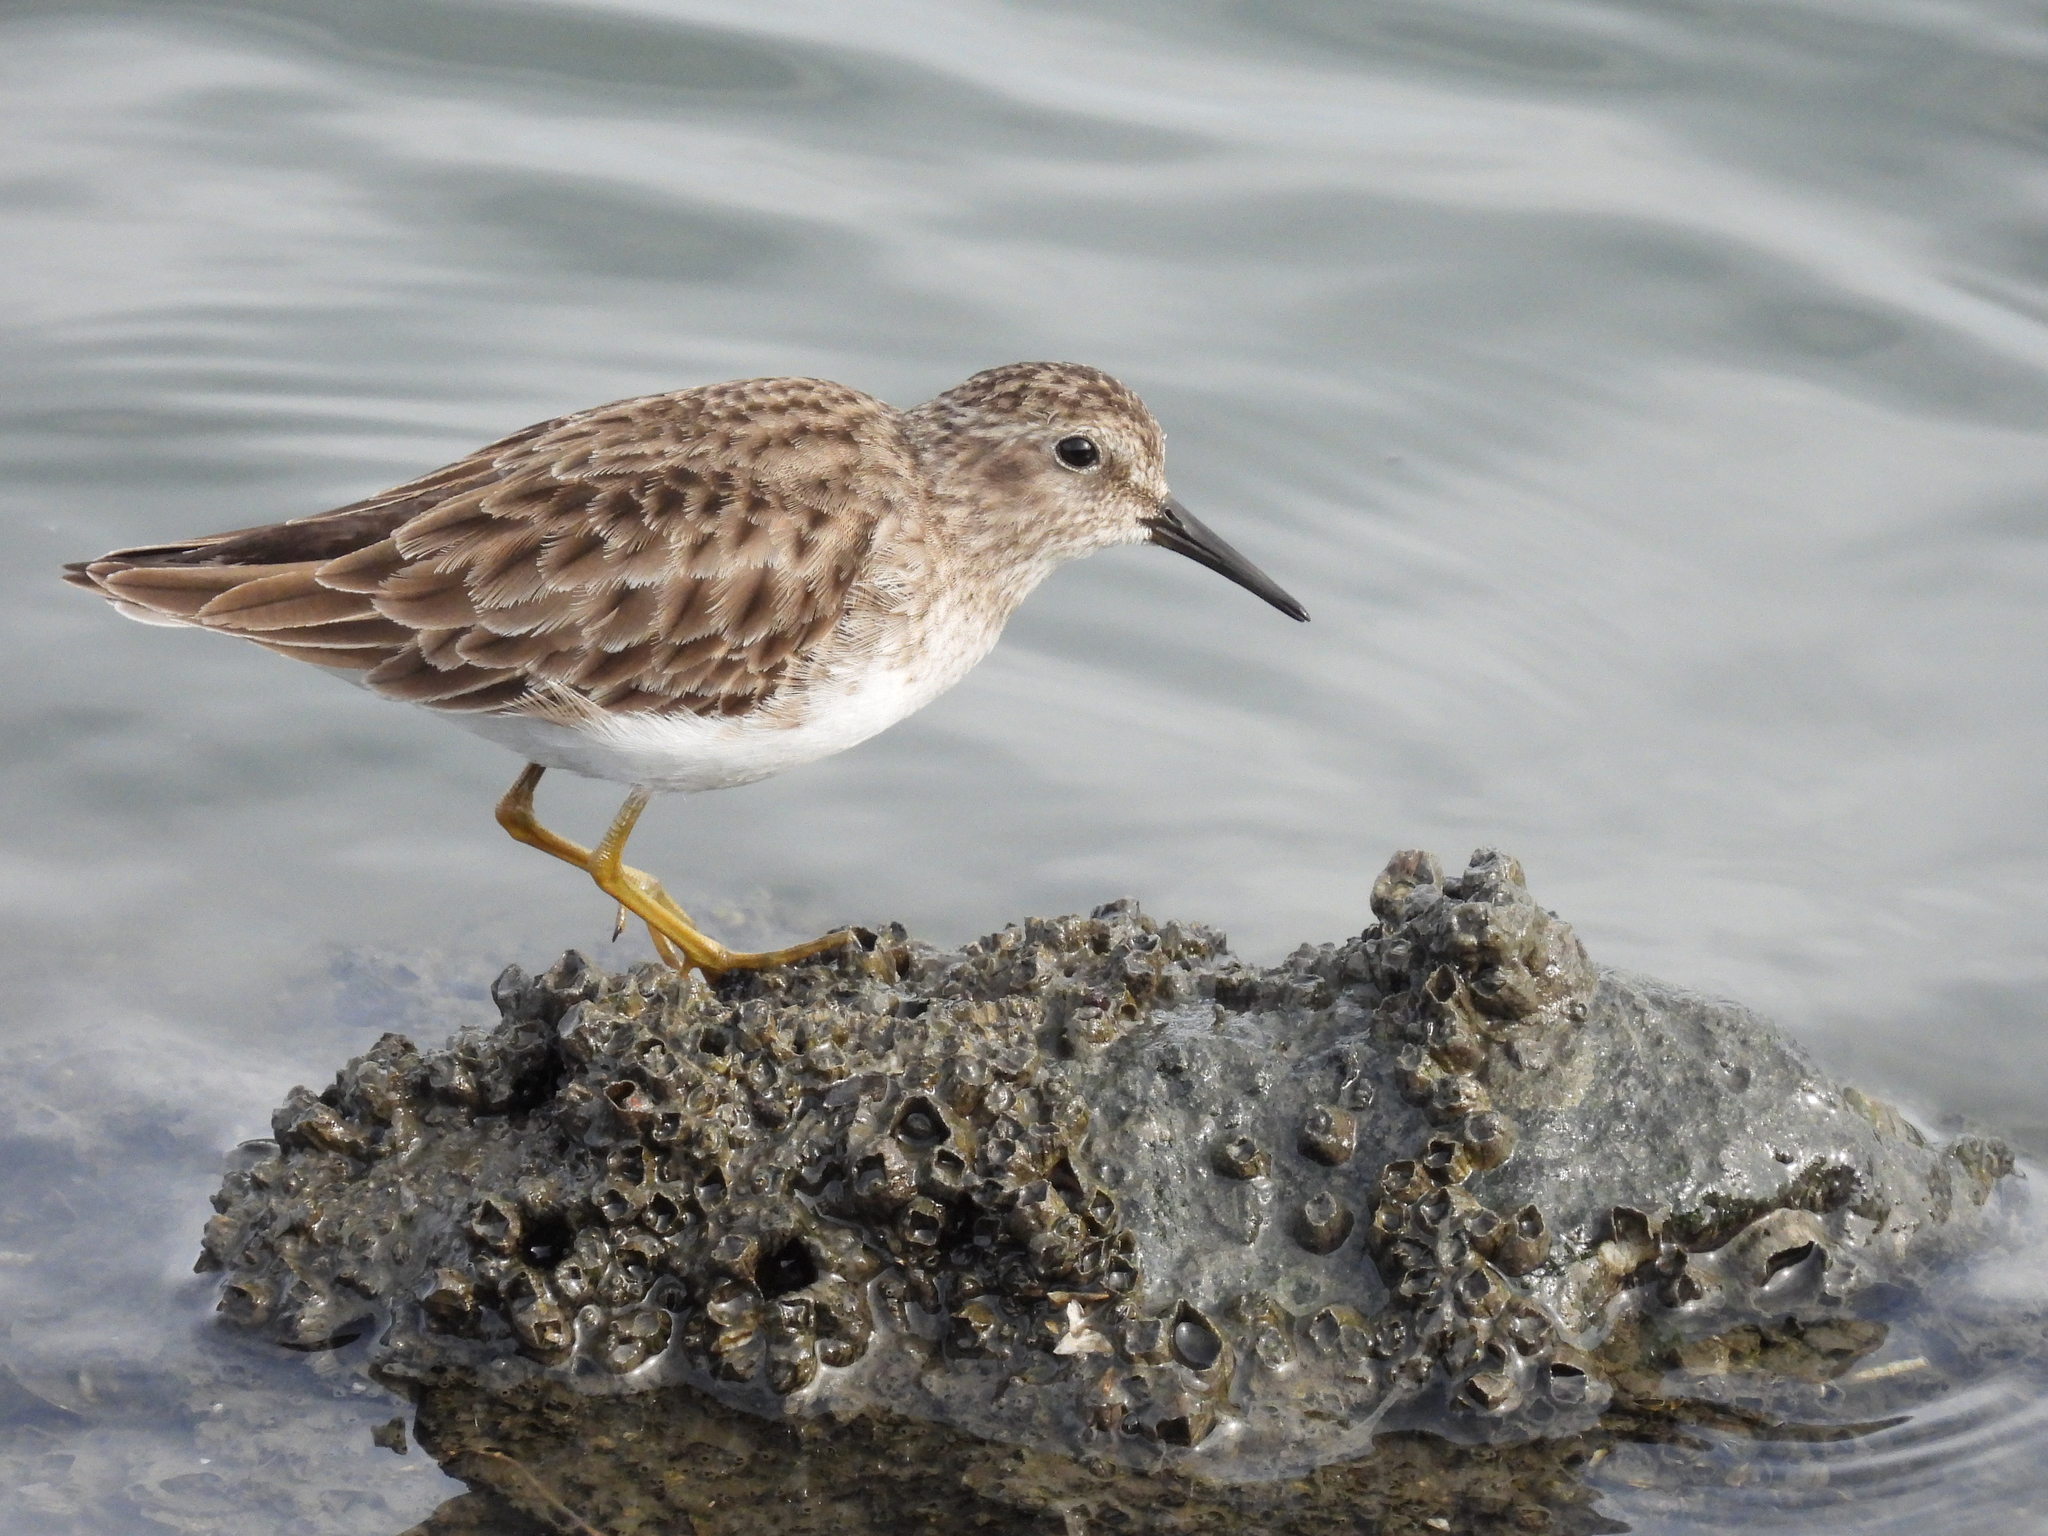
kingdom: Animalia
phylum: Chordata
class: Aves
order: Charadriiformes
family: Scolopacidae
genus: Calidris
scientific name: Calidris minutilla
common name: Least sandpiper
